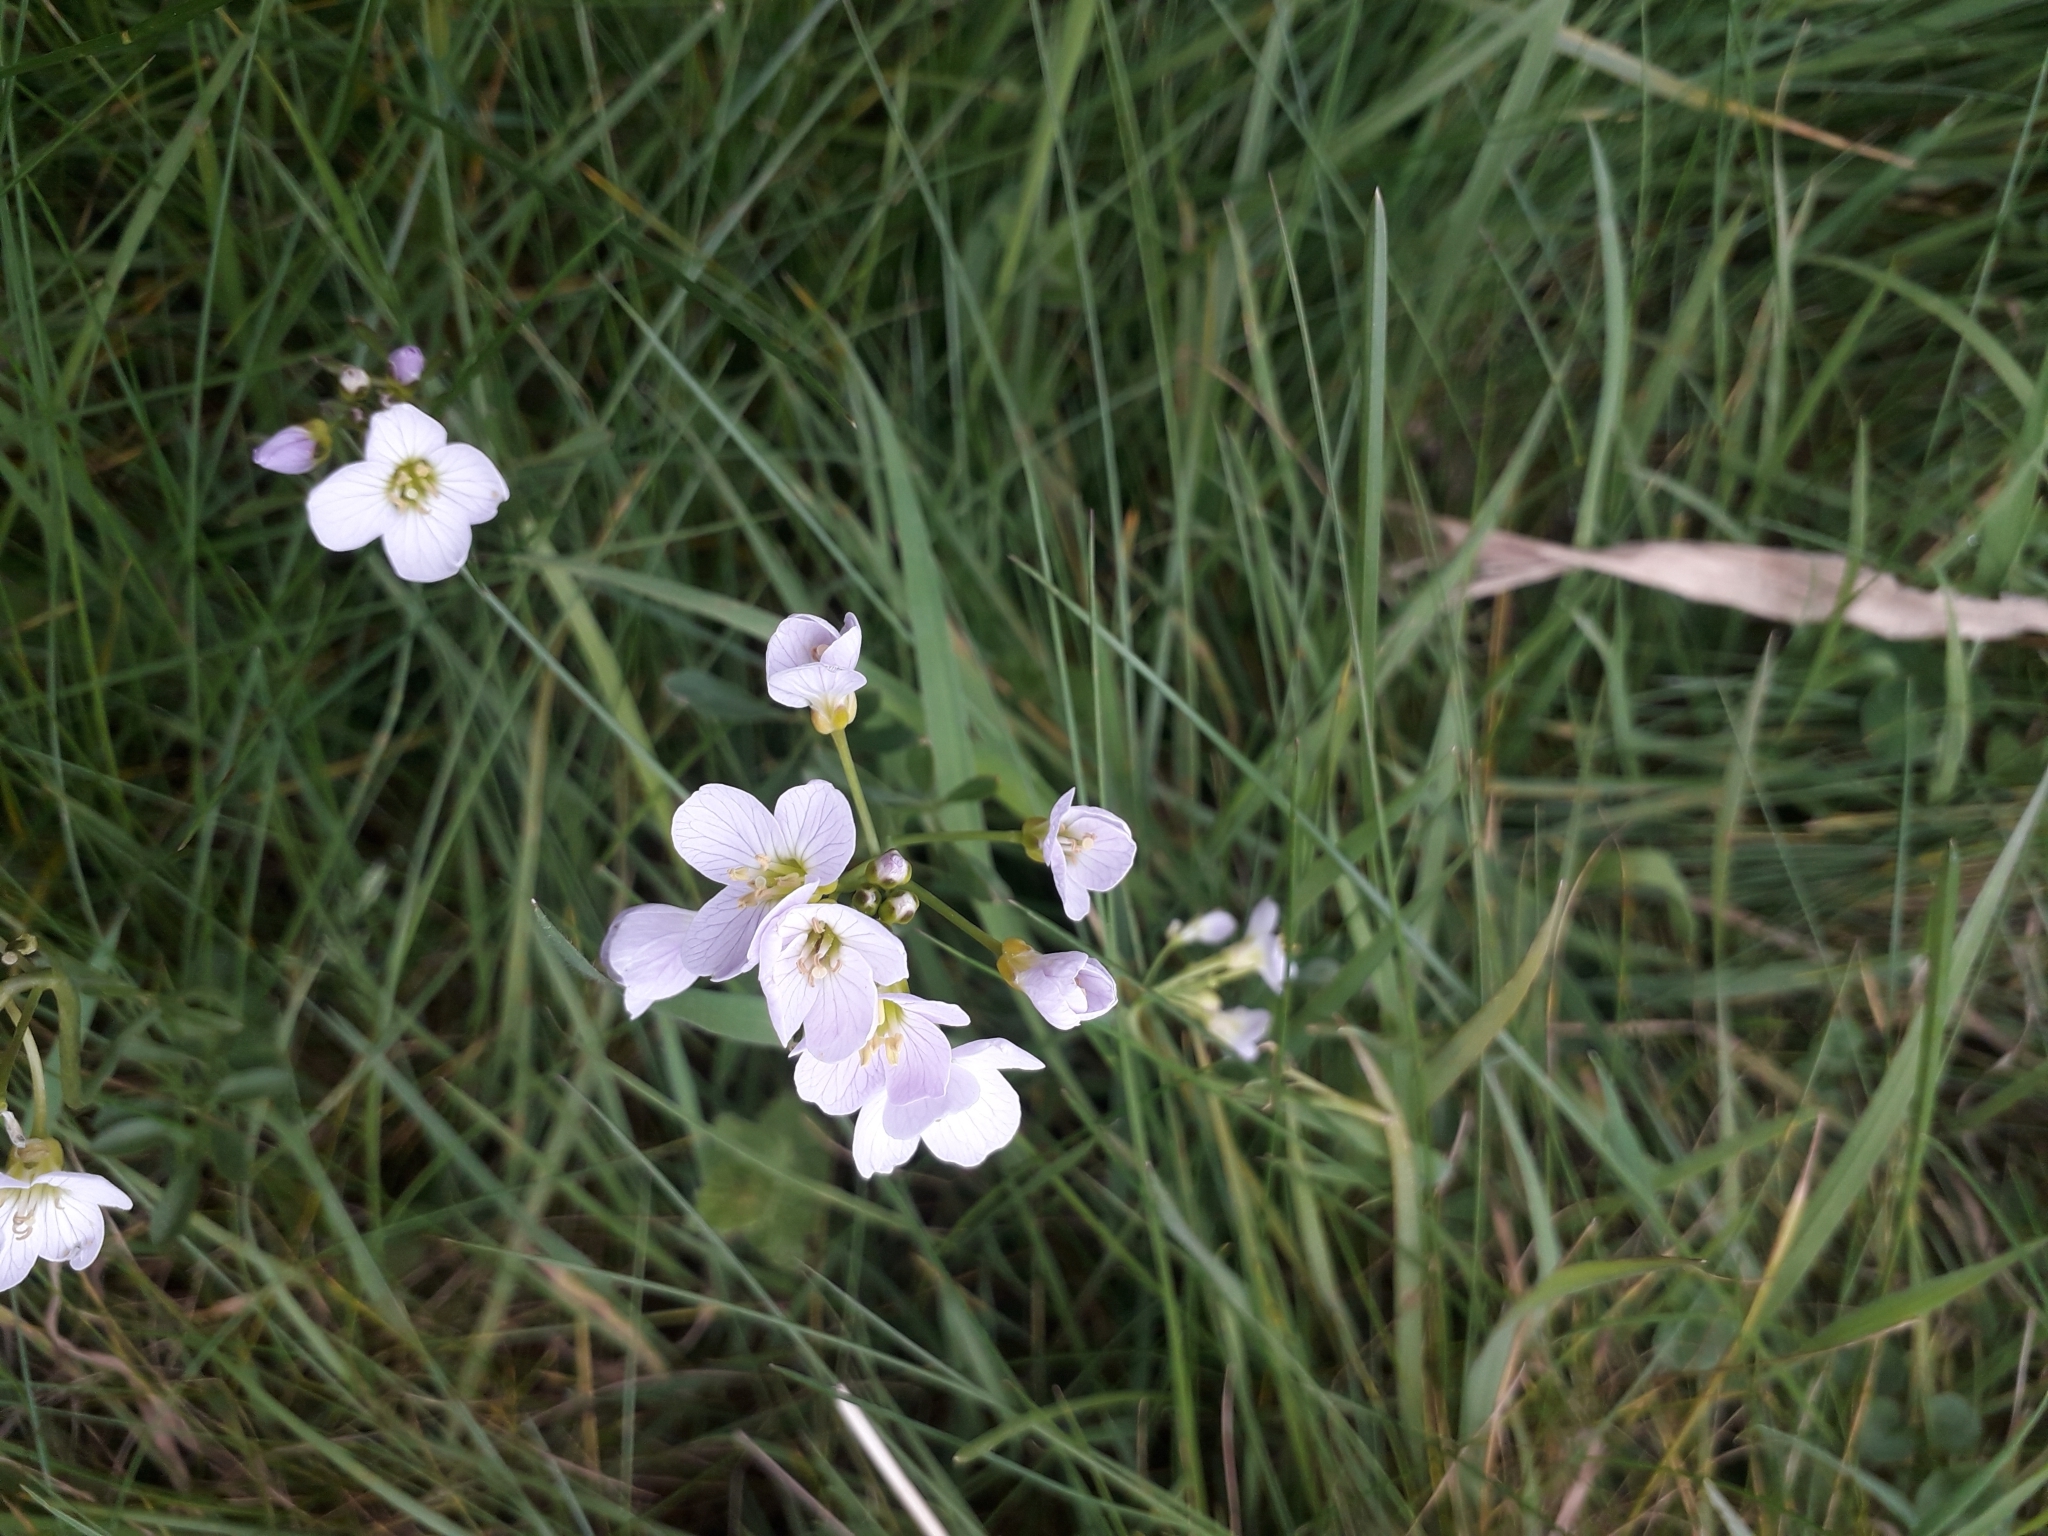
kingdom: Plantae
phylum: Tracheophyta
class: Magnoliopsida
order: Brassicales
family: Brassicaceae
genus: Cardamine
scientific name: Cardamine pratensis
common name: Cuckoo flower
